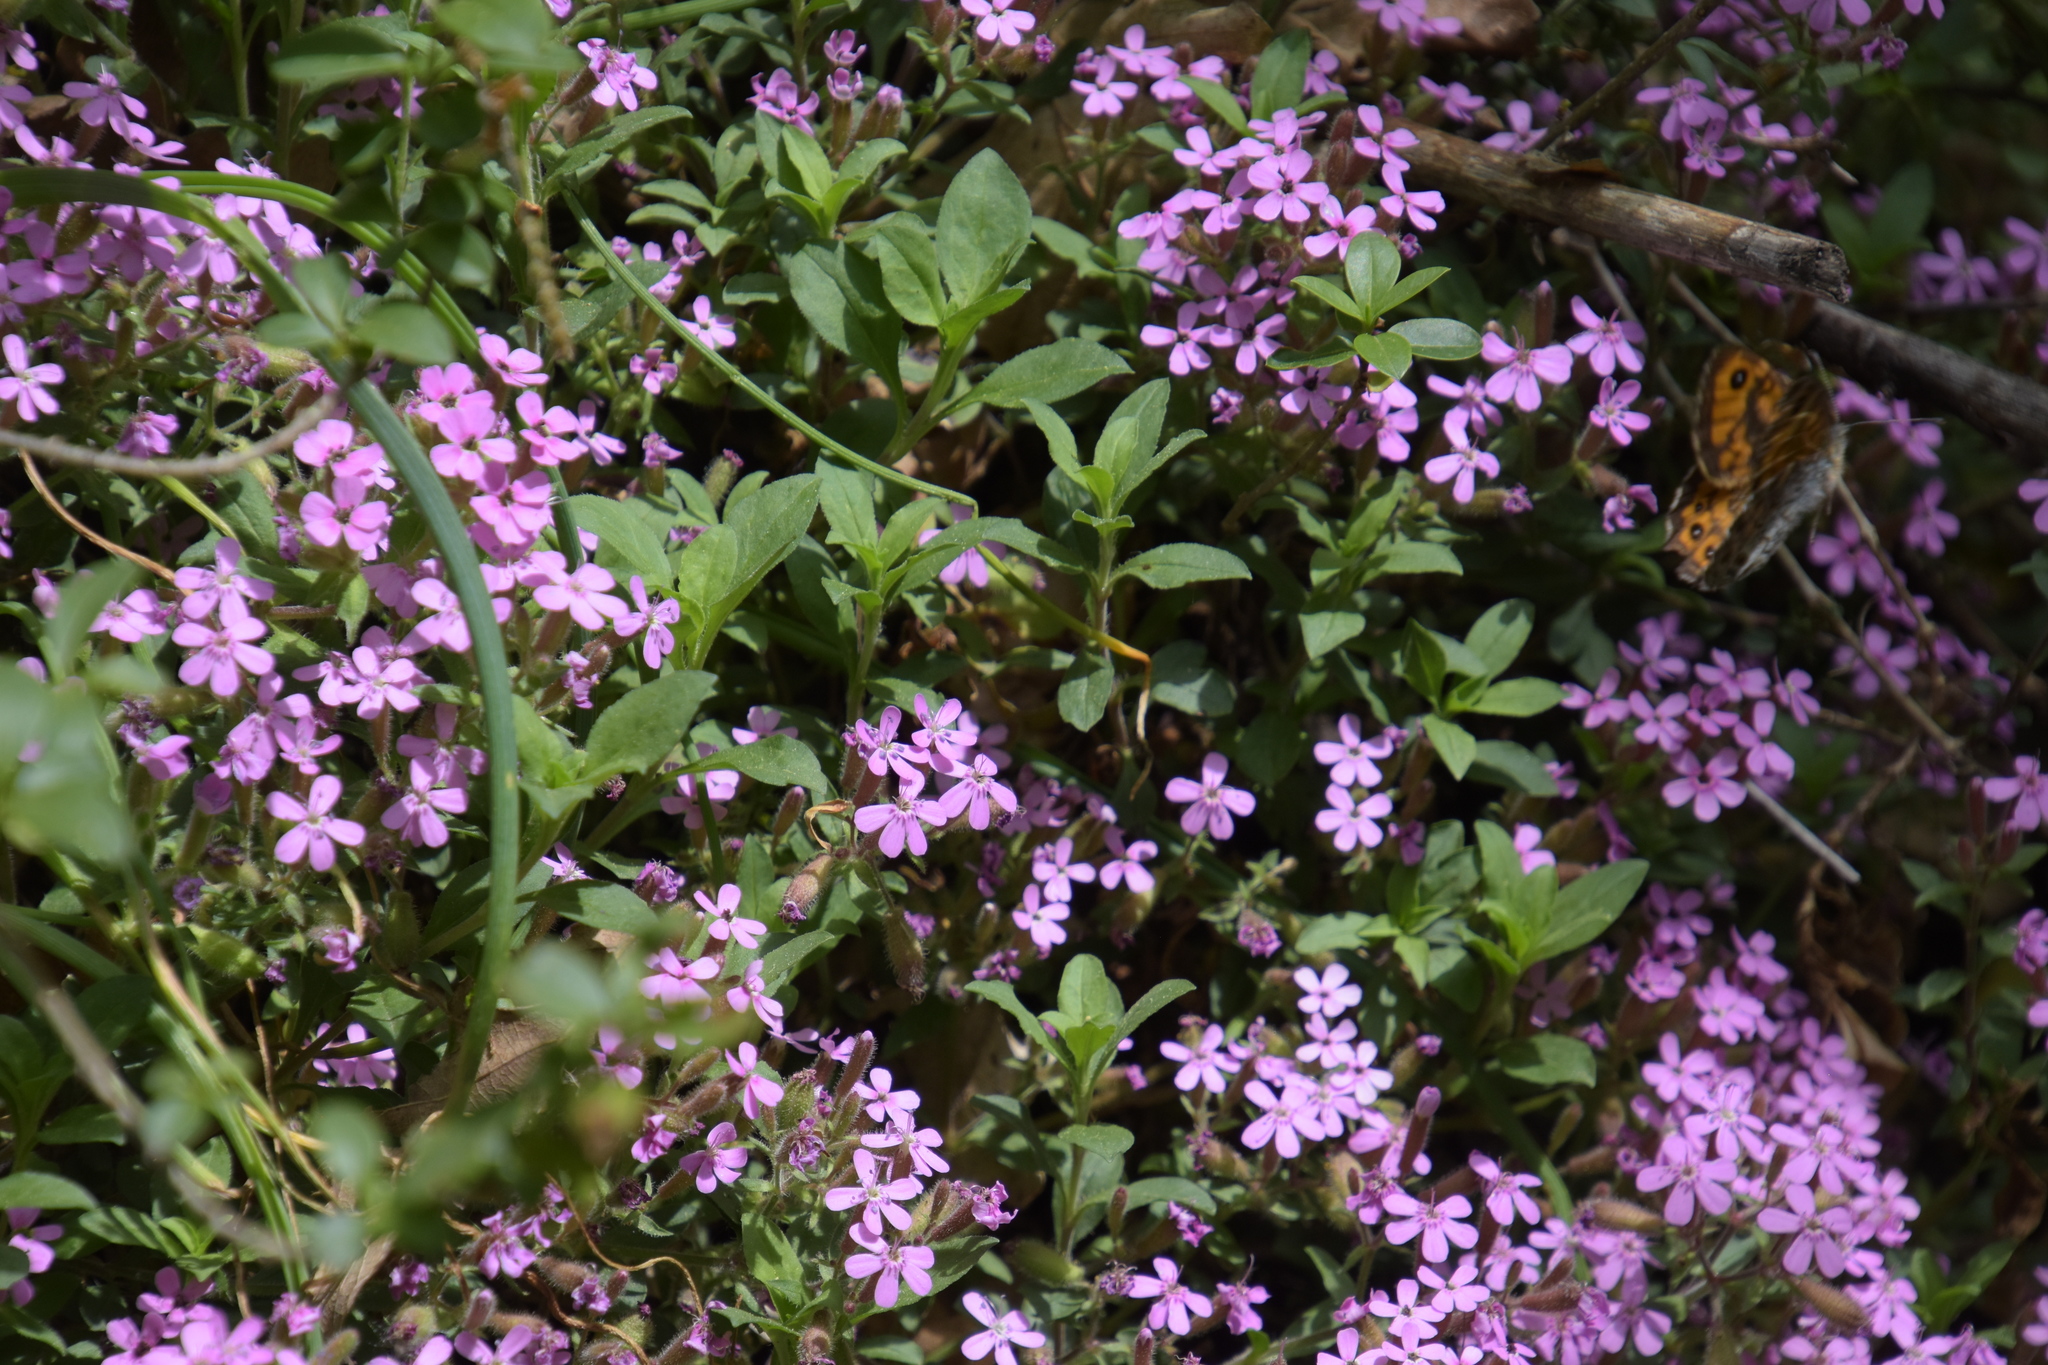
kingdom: Plantae
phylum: Tracheophyta
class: Magnoliopsida
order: Caryophyllales
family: Caryophyllaceae
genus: Saponaria
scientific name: Saponaria ocymoides
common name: Rock soapwort
